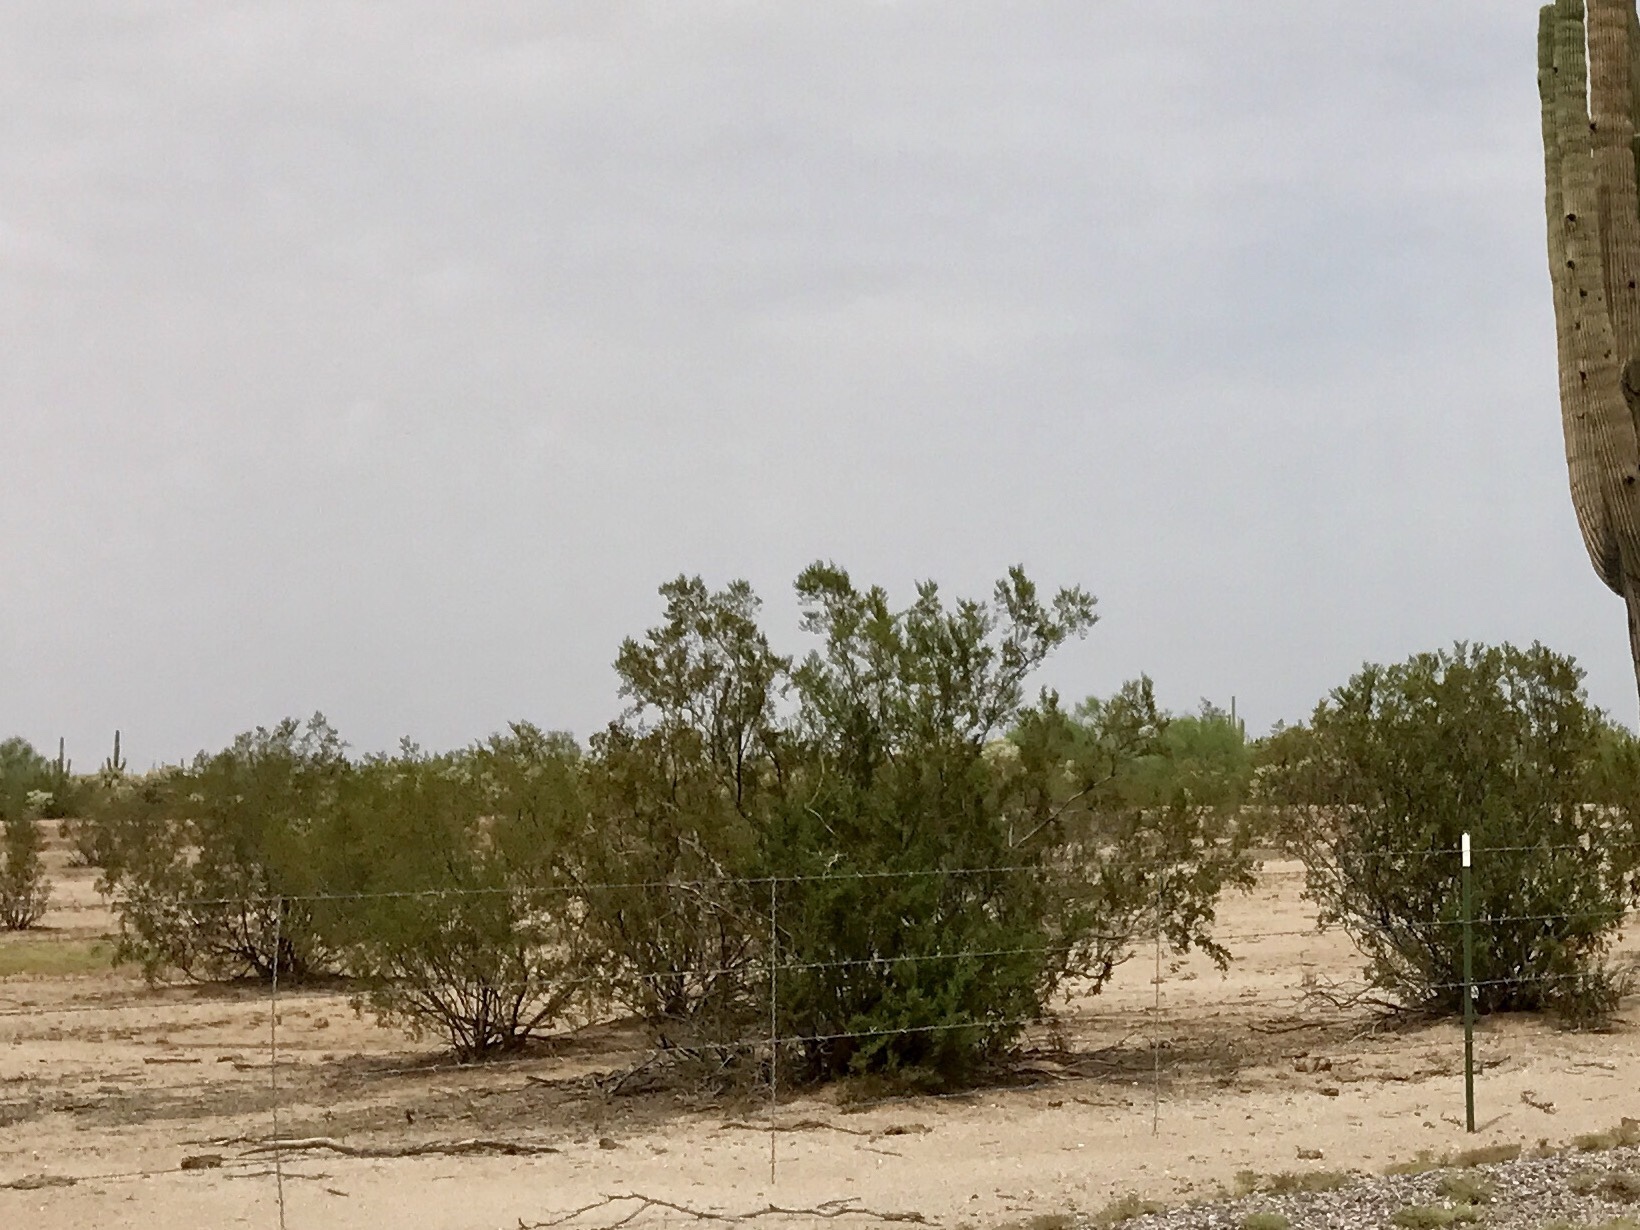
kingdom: Plantae
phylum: Tracheophyta
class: Magnoliopsida
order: Zygophyllales
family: Zygophyllaceae
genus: Larrea
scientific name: Larrea tridentata
